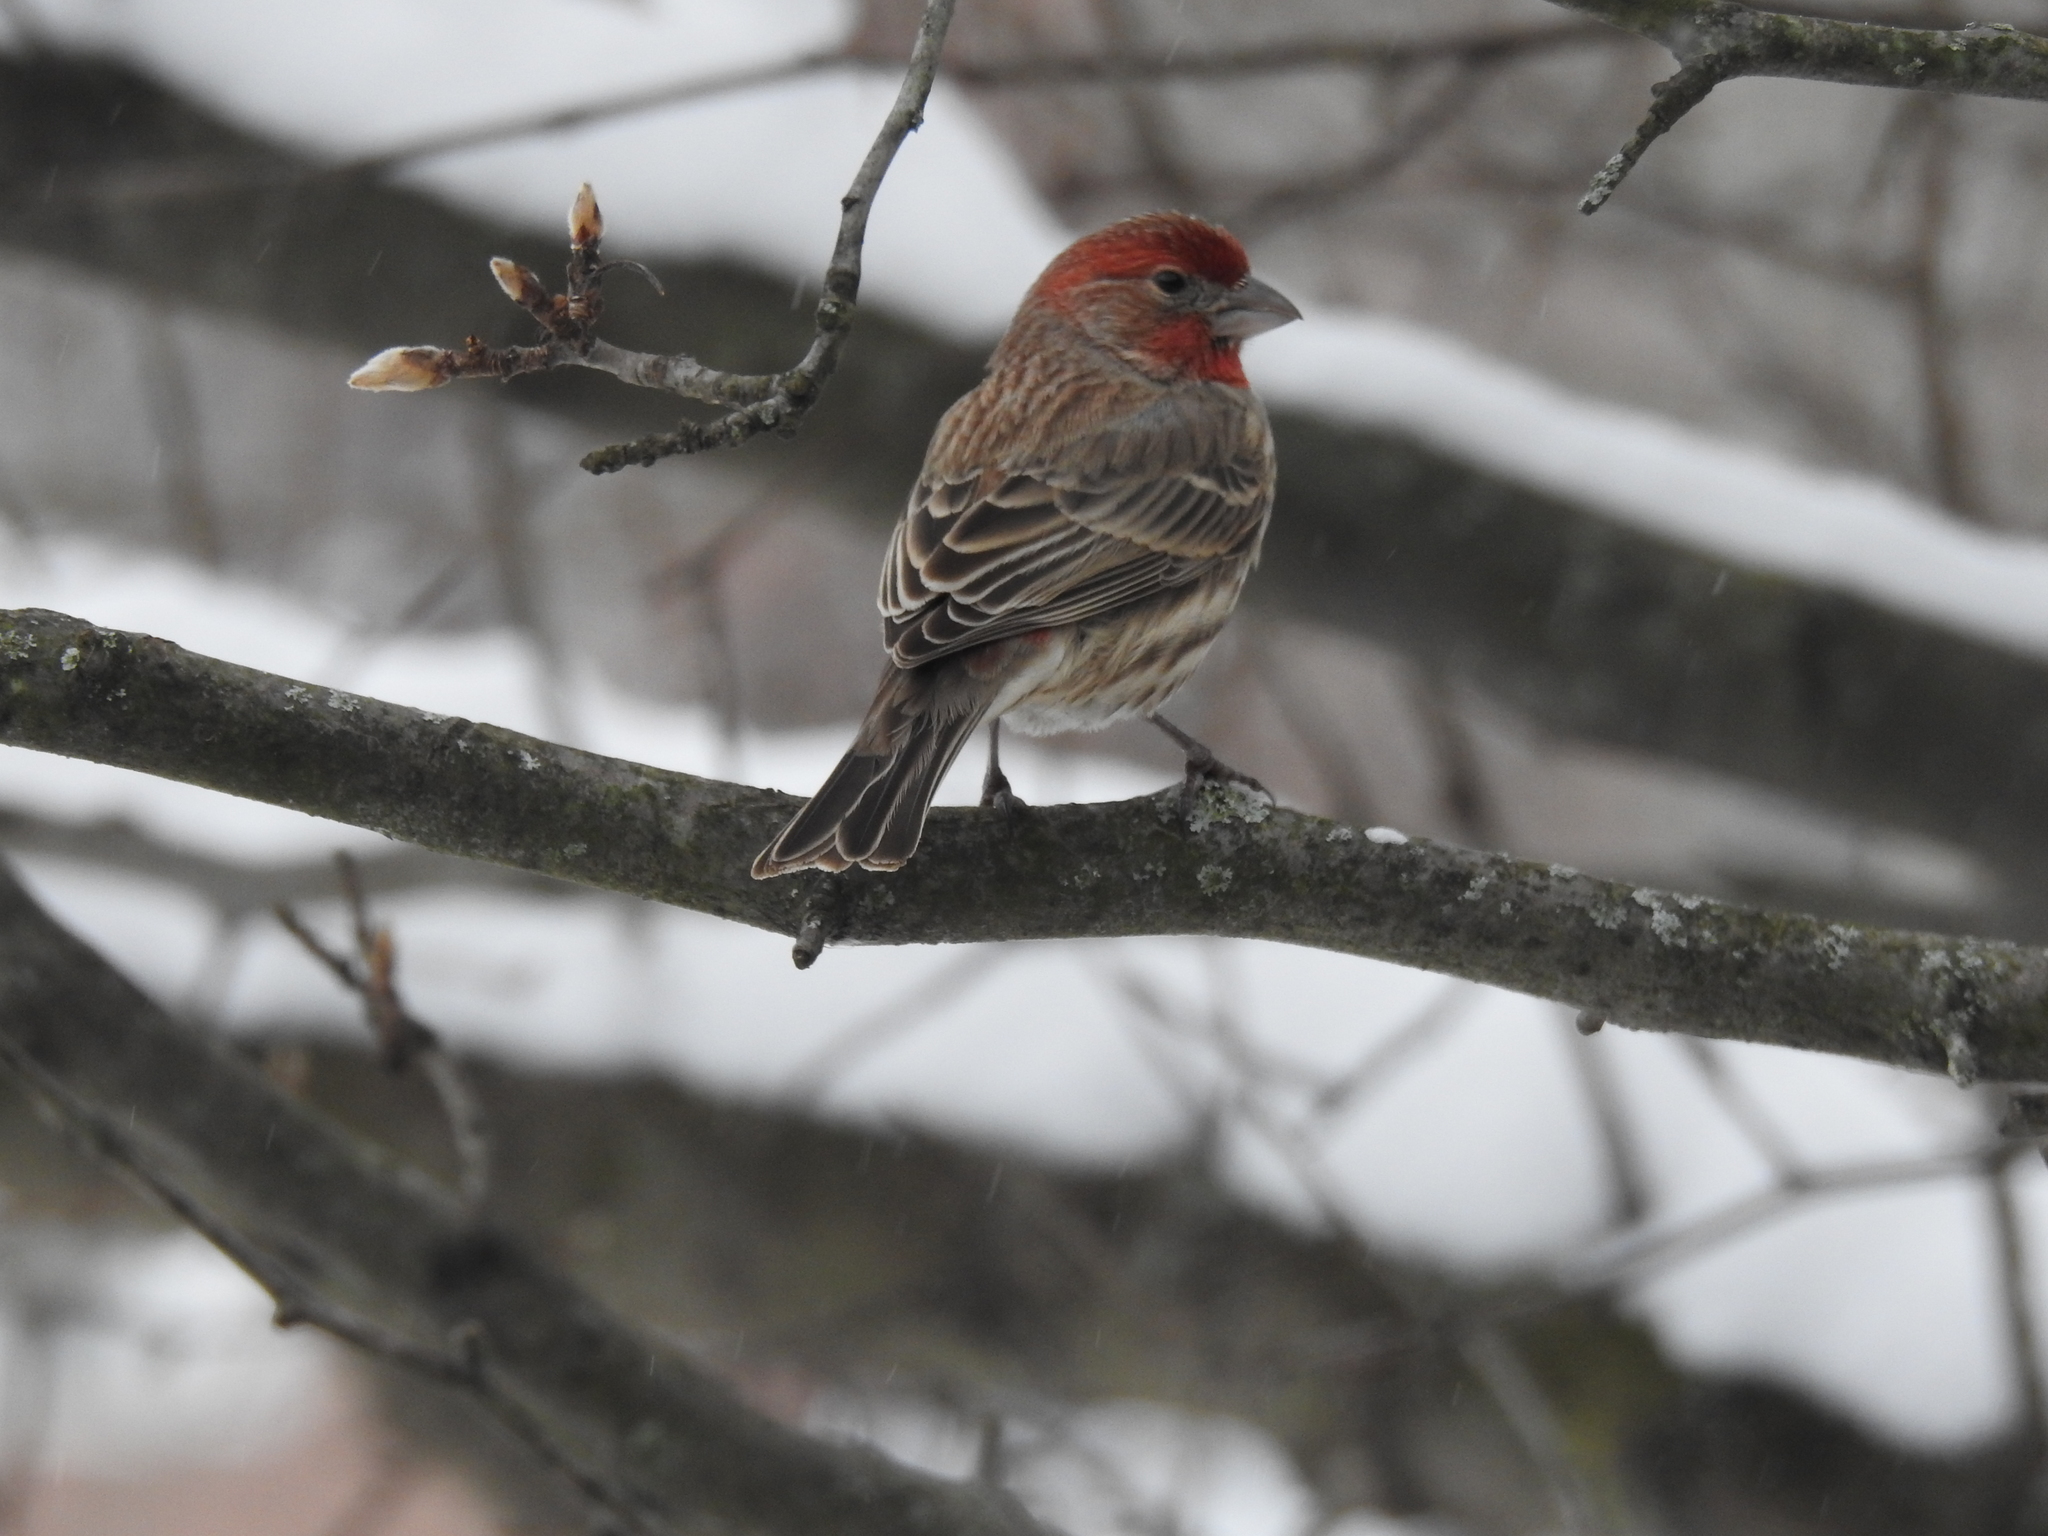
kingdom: Animalia
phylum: Chordata
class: Aves
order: Passeriformes
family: Fringillidae
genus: Haemorhous
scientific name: Haemorhous mexicanus
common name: House finch
